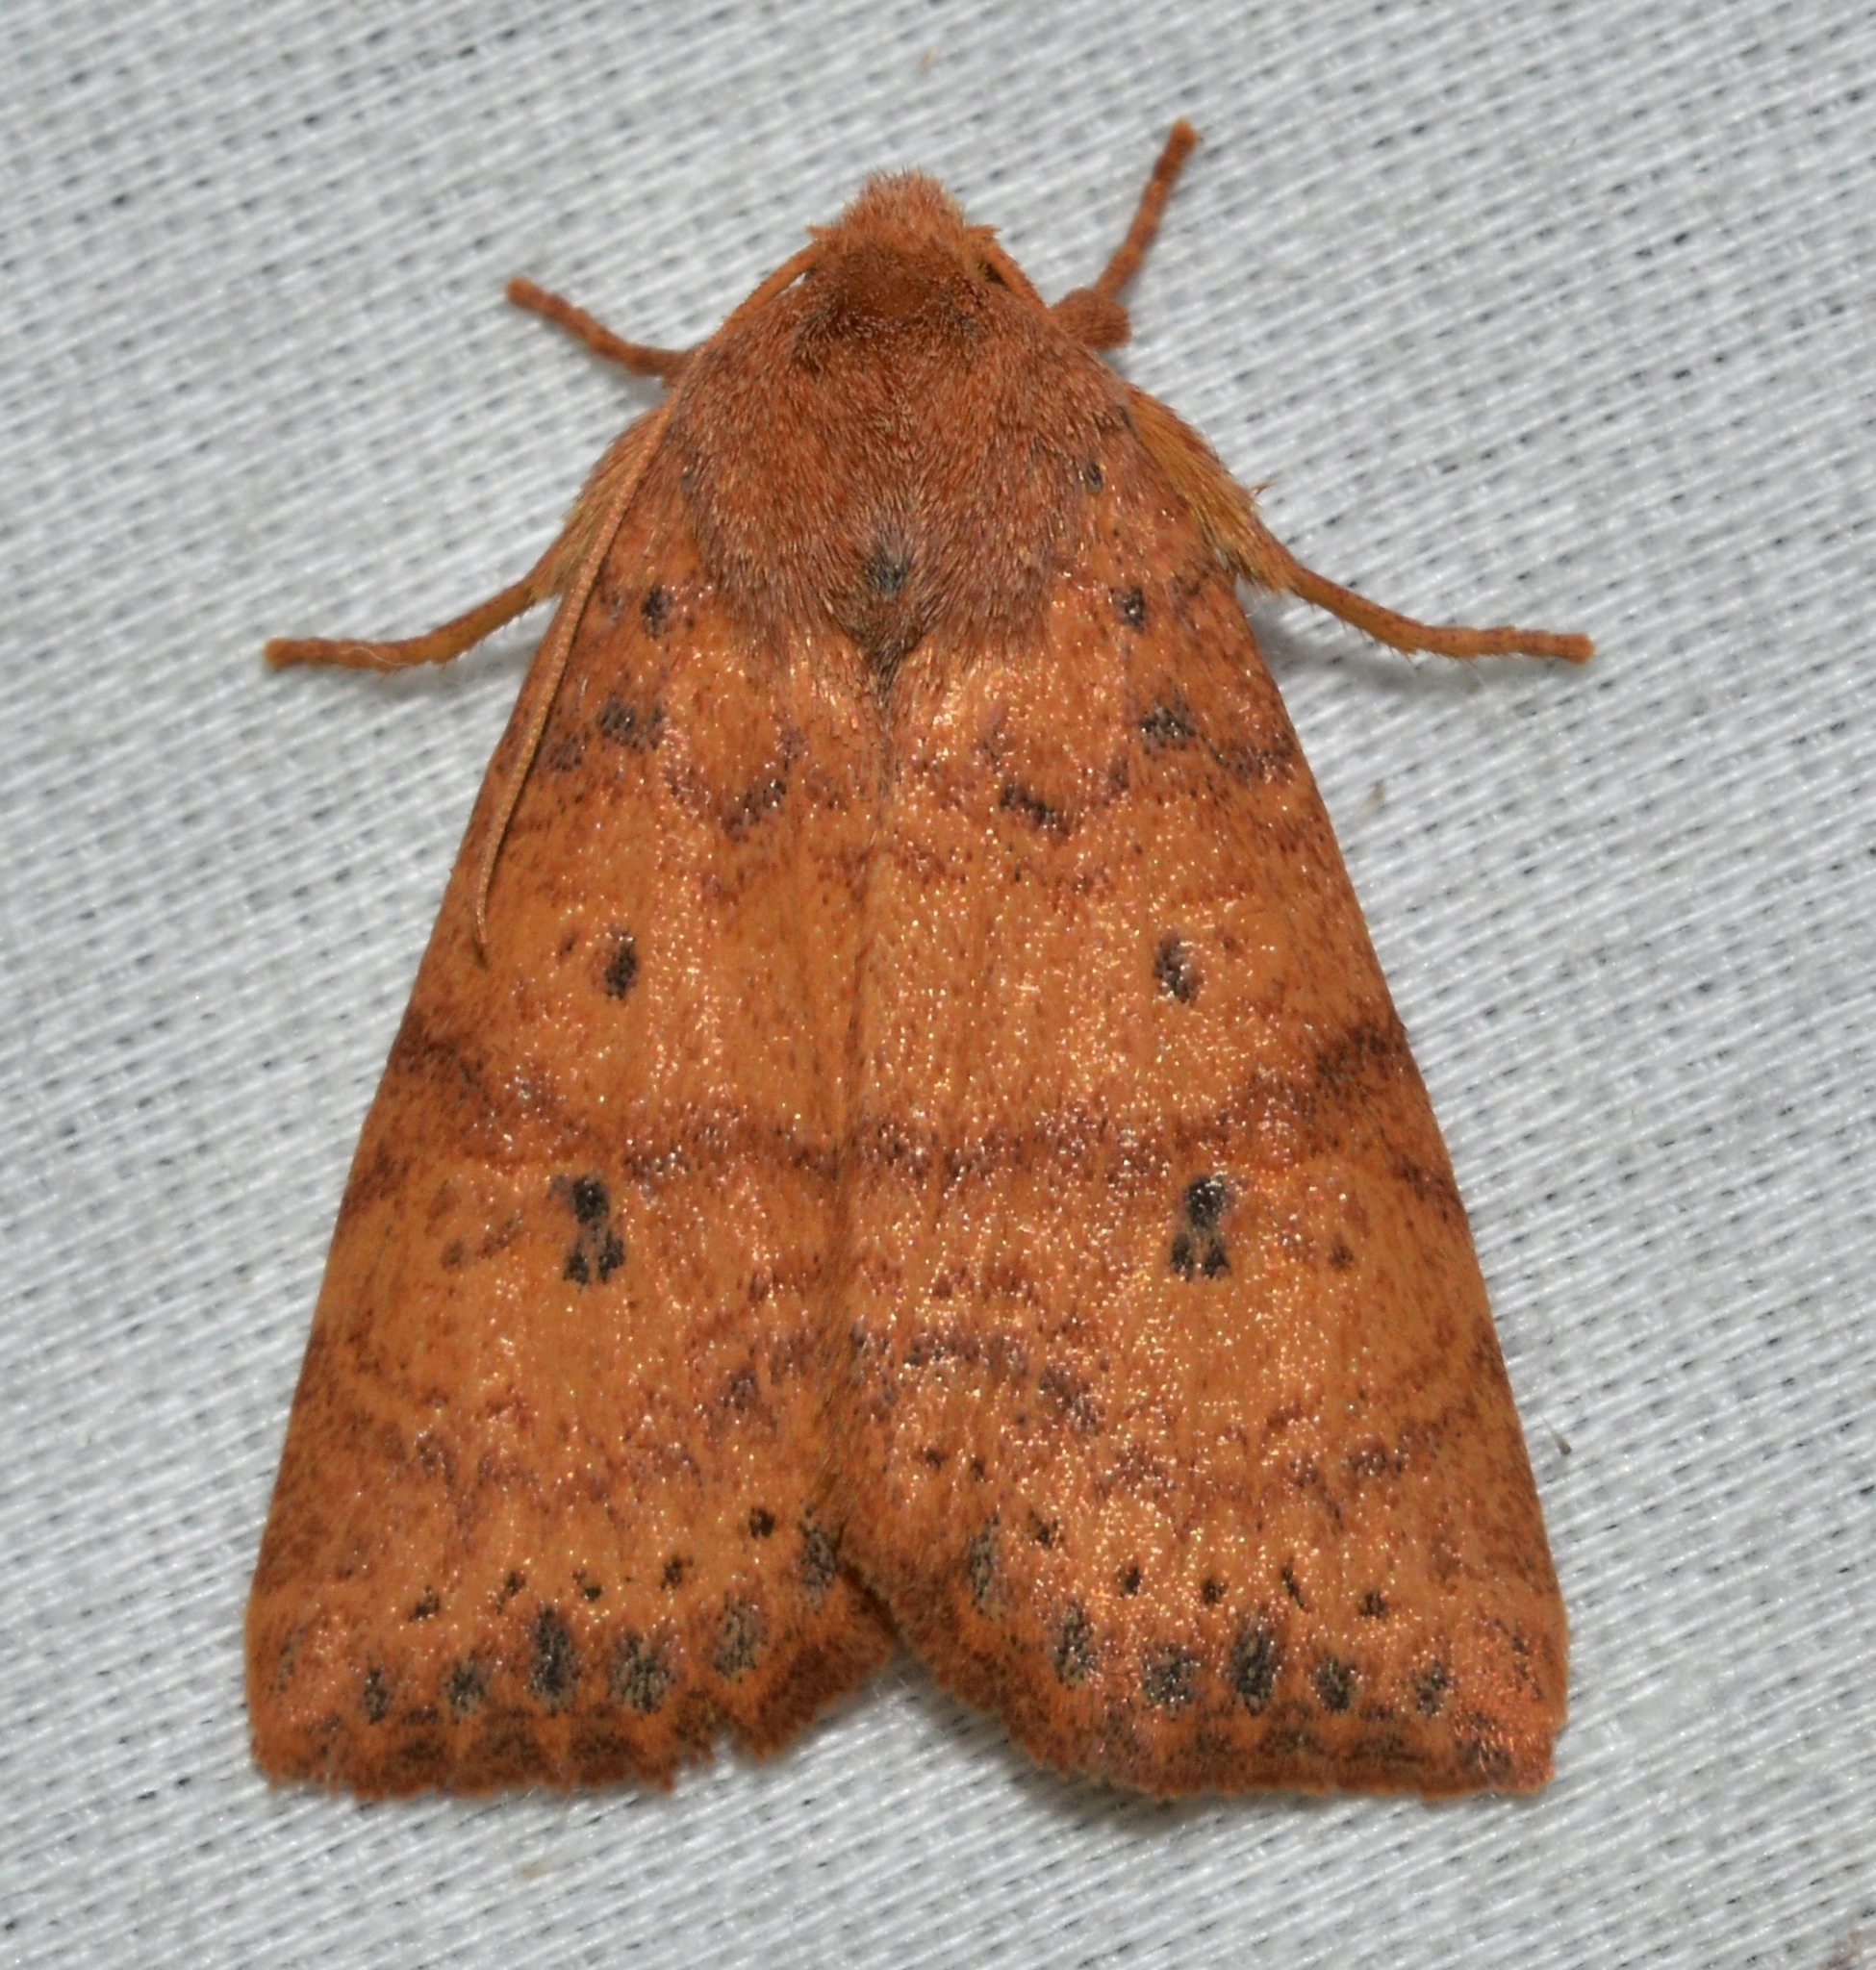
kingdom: Animalia
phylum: Arthropoda
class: Insecta
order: Lepidoptera
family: Noctuidae
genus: Anathix
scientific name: Anathix ralla
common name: Dotted sallow
